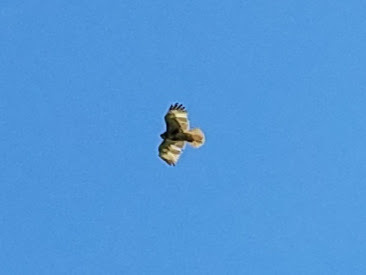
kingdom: Animalia
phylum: Chordata
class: Aves
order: Accipitriformes
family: Accipitridae
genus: Buteo
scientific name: Buteo jamaicensis
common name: Red-tailed hawk
